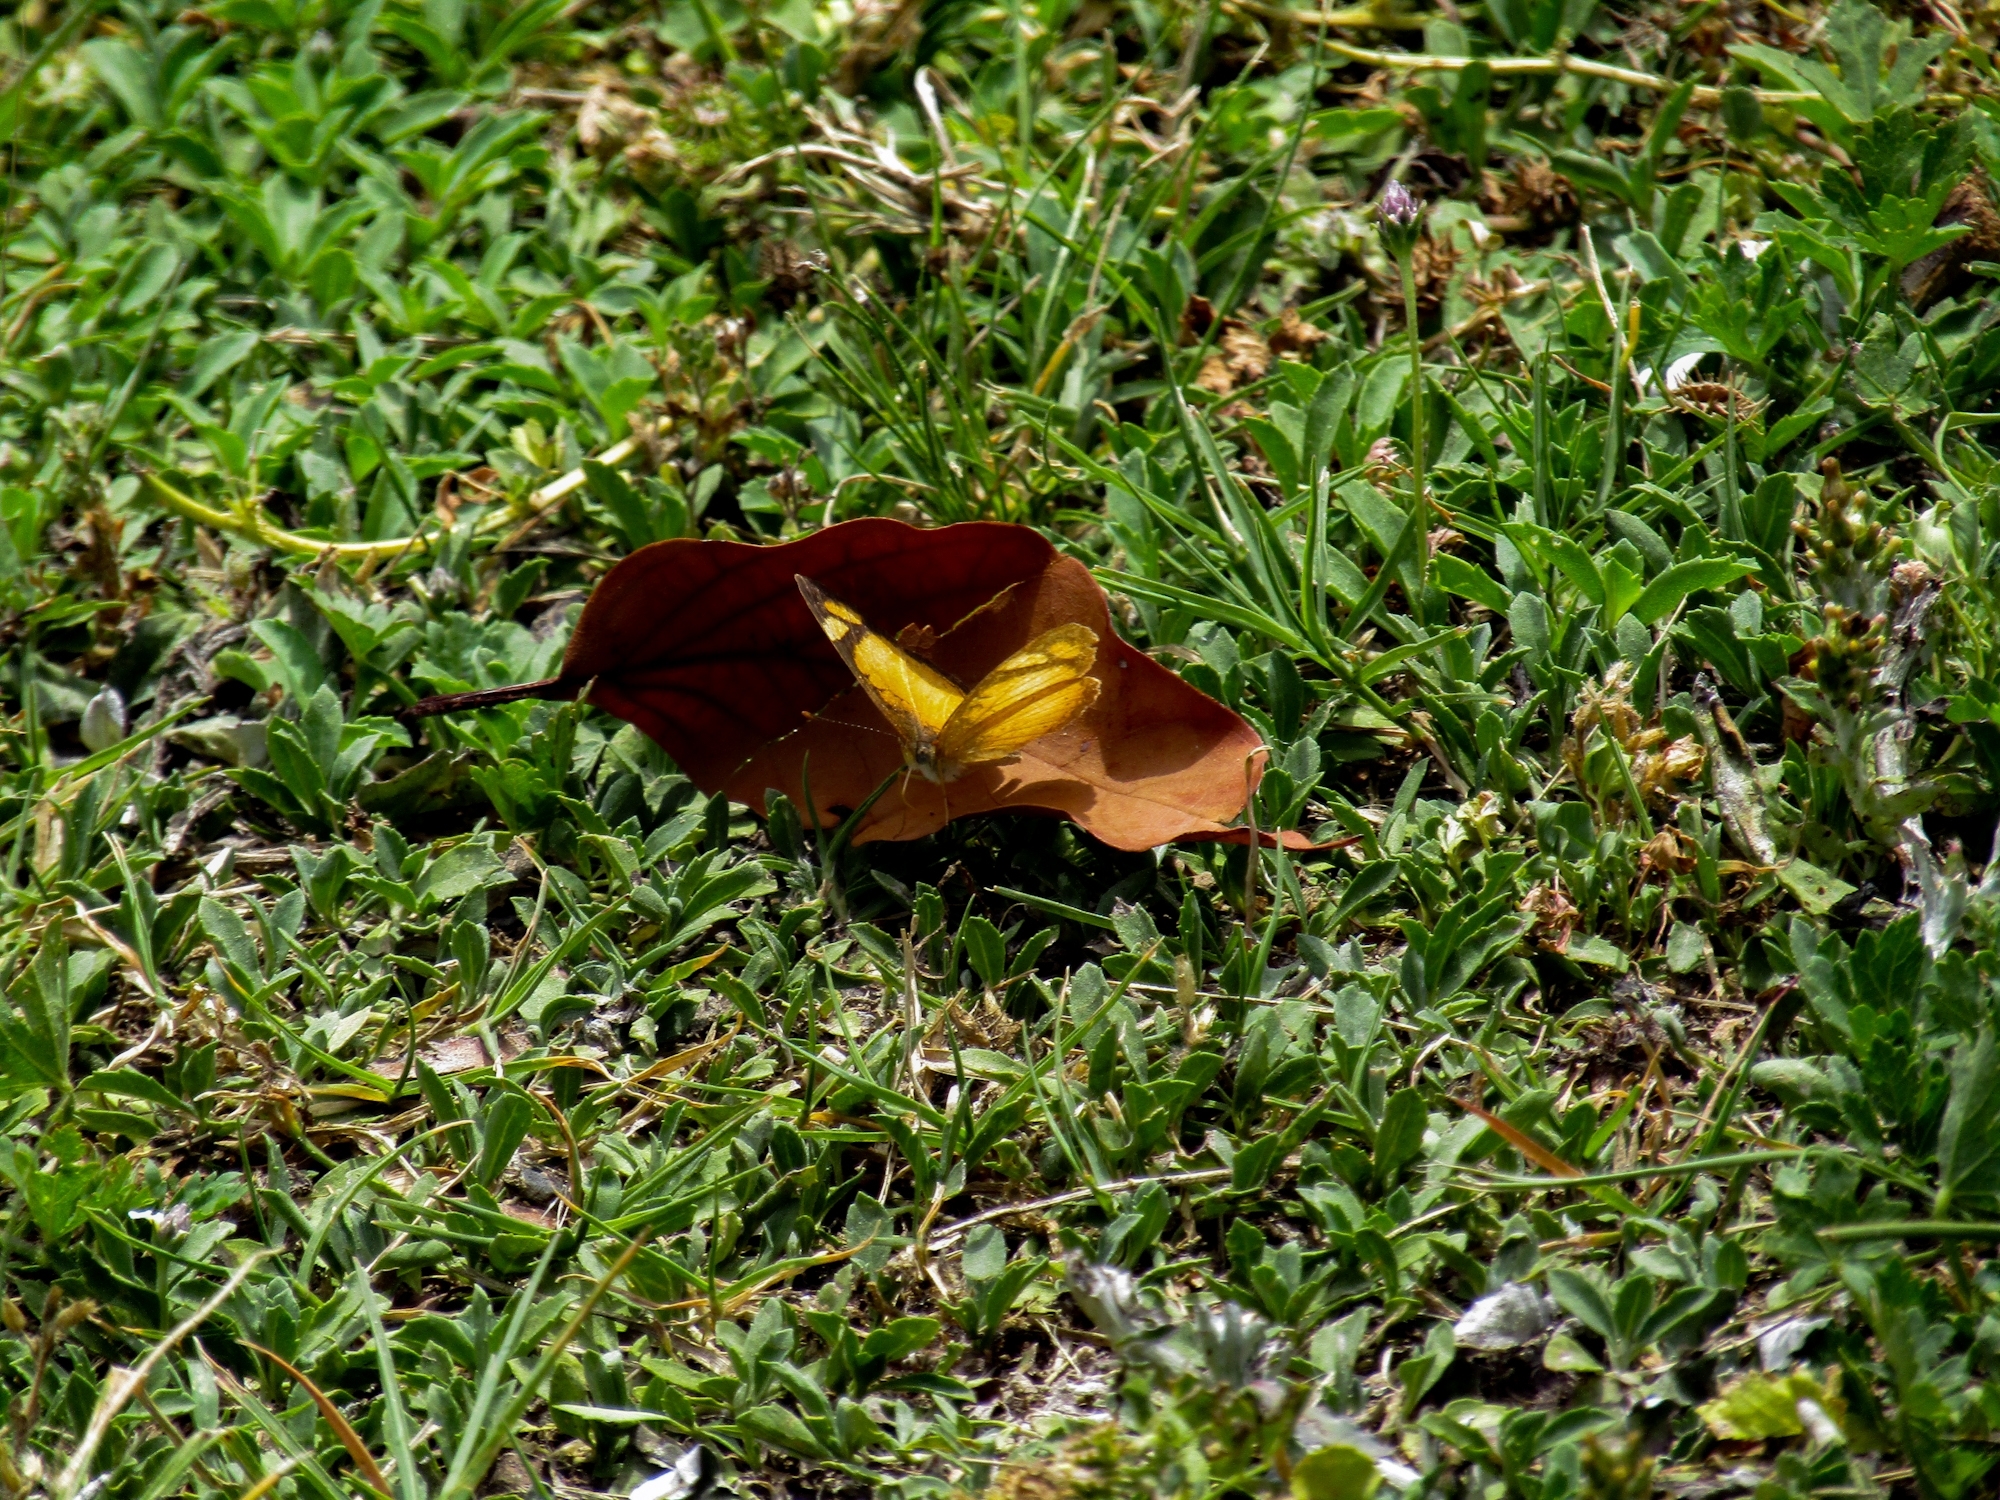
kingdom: Animalia
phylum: Arthropoda
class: Insecta
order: Lepidoptera
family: Nymphalidae
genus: Tegosa
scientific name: Tegosa claudina
